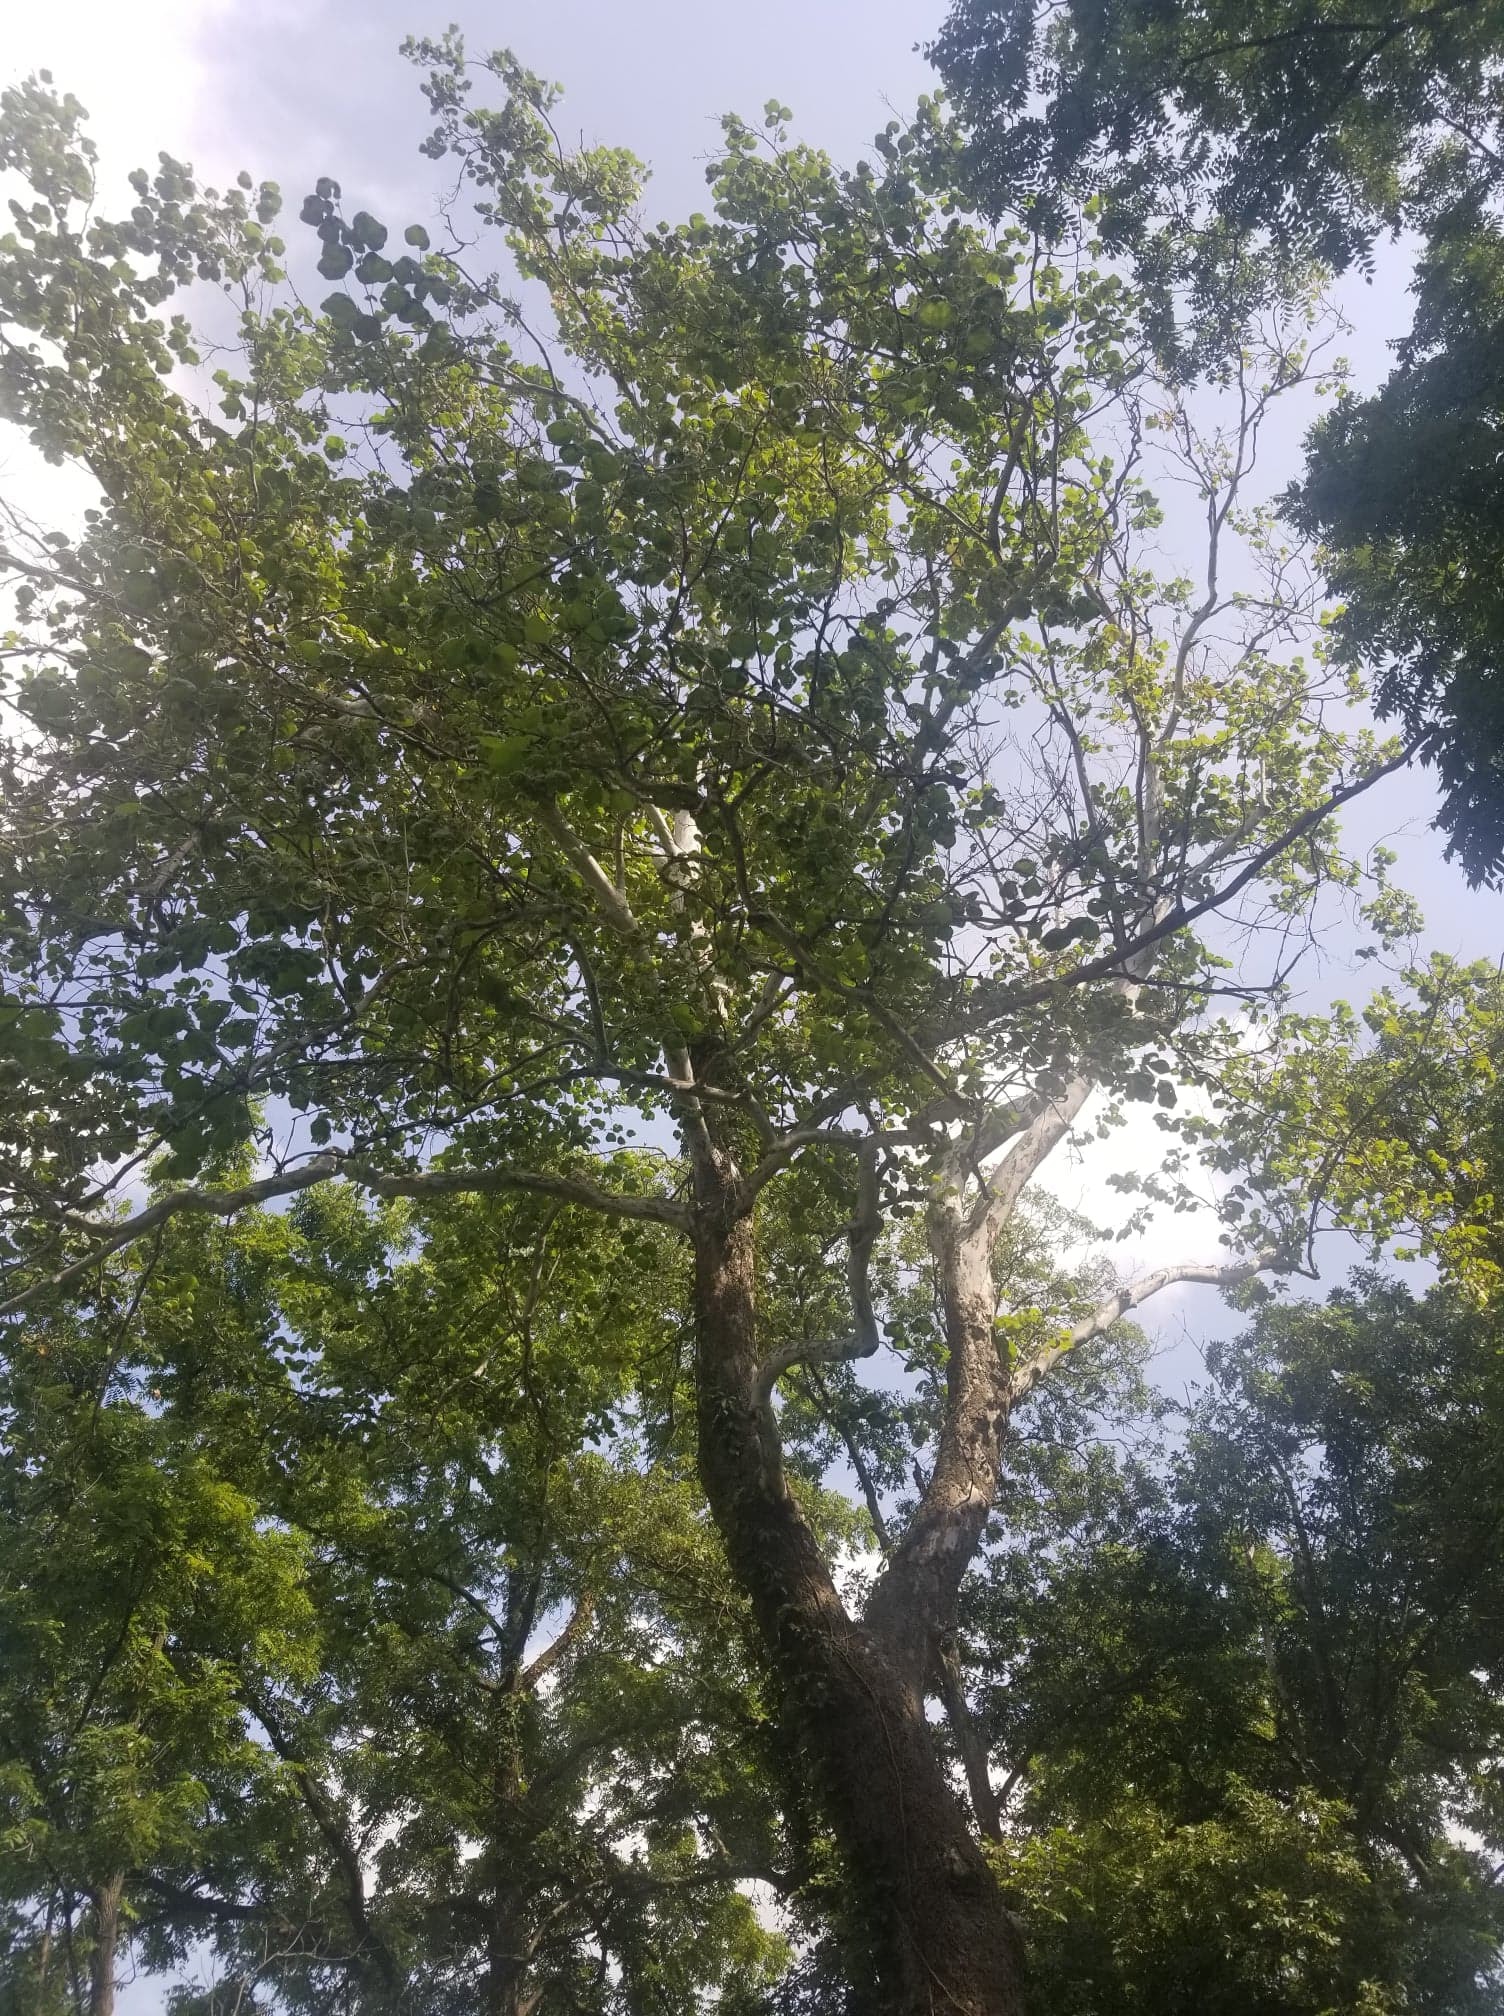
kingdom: Plantae
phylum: Tracheophyta
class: Magnoliopsida
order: Proteales
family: Platanaceae
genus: Platanus
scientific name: Platanus occidentalis
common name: American sycamore
